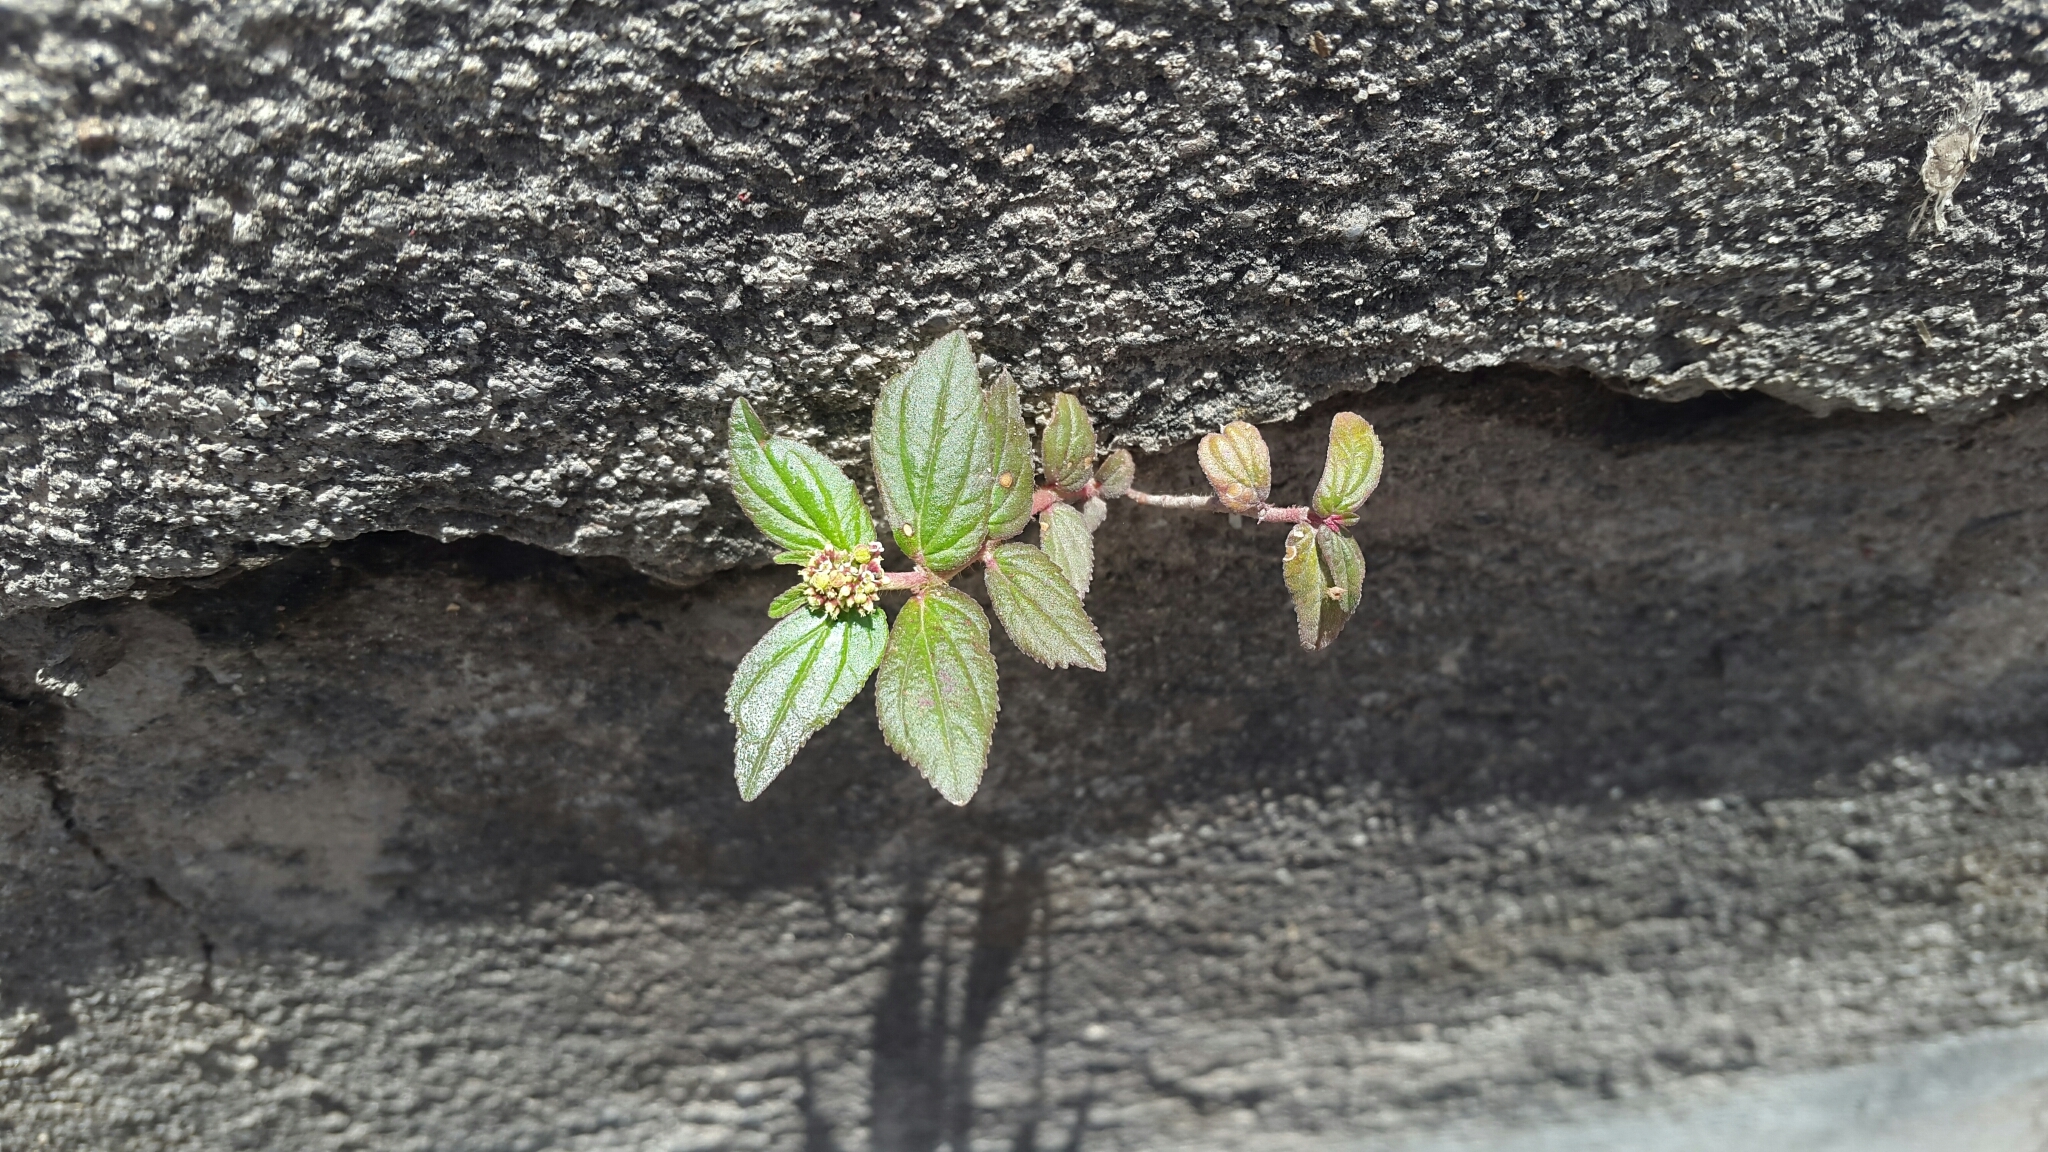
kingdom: Plantae
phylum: Tracheophyta
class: Magnoliopsida
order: Malpighiales
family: Euphorbiaceae
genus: Euphorbia
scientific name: Euphorbia hirta
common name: Pillpod sandmat
